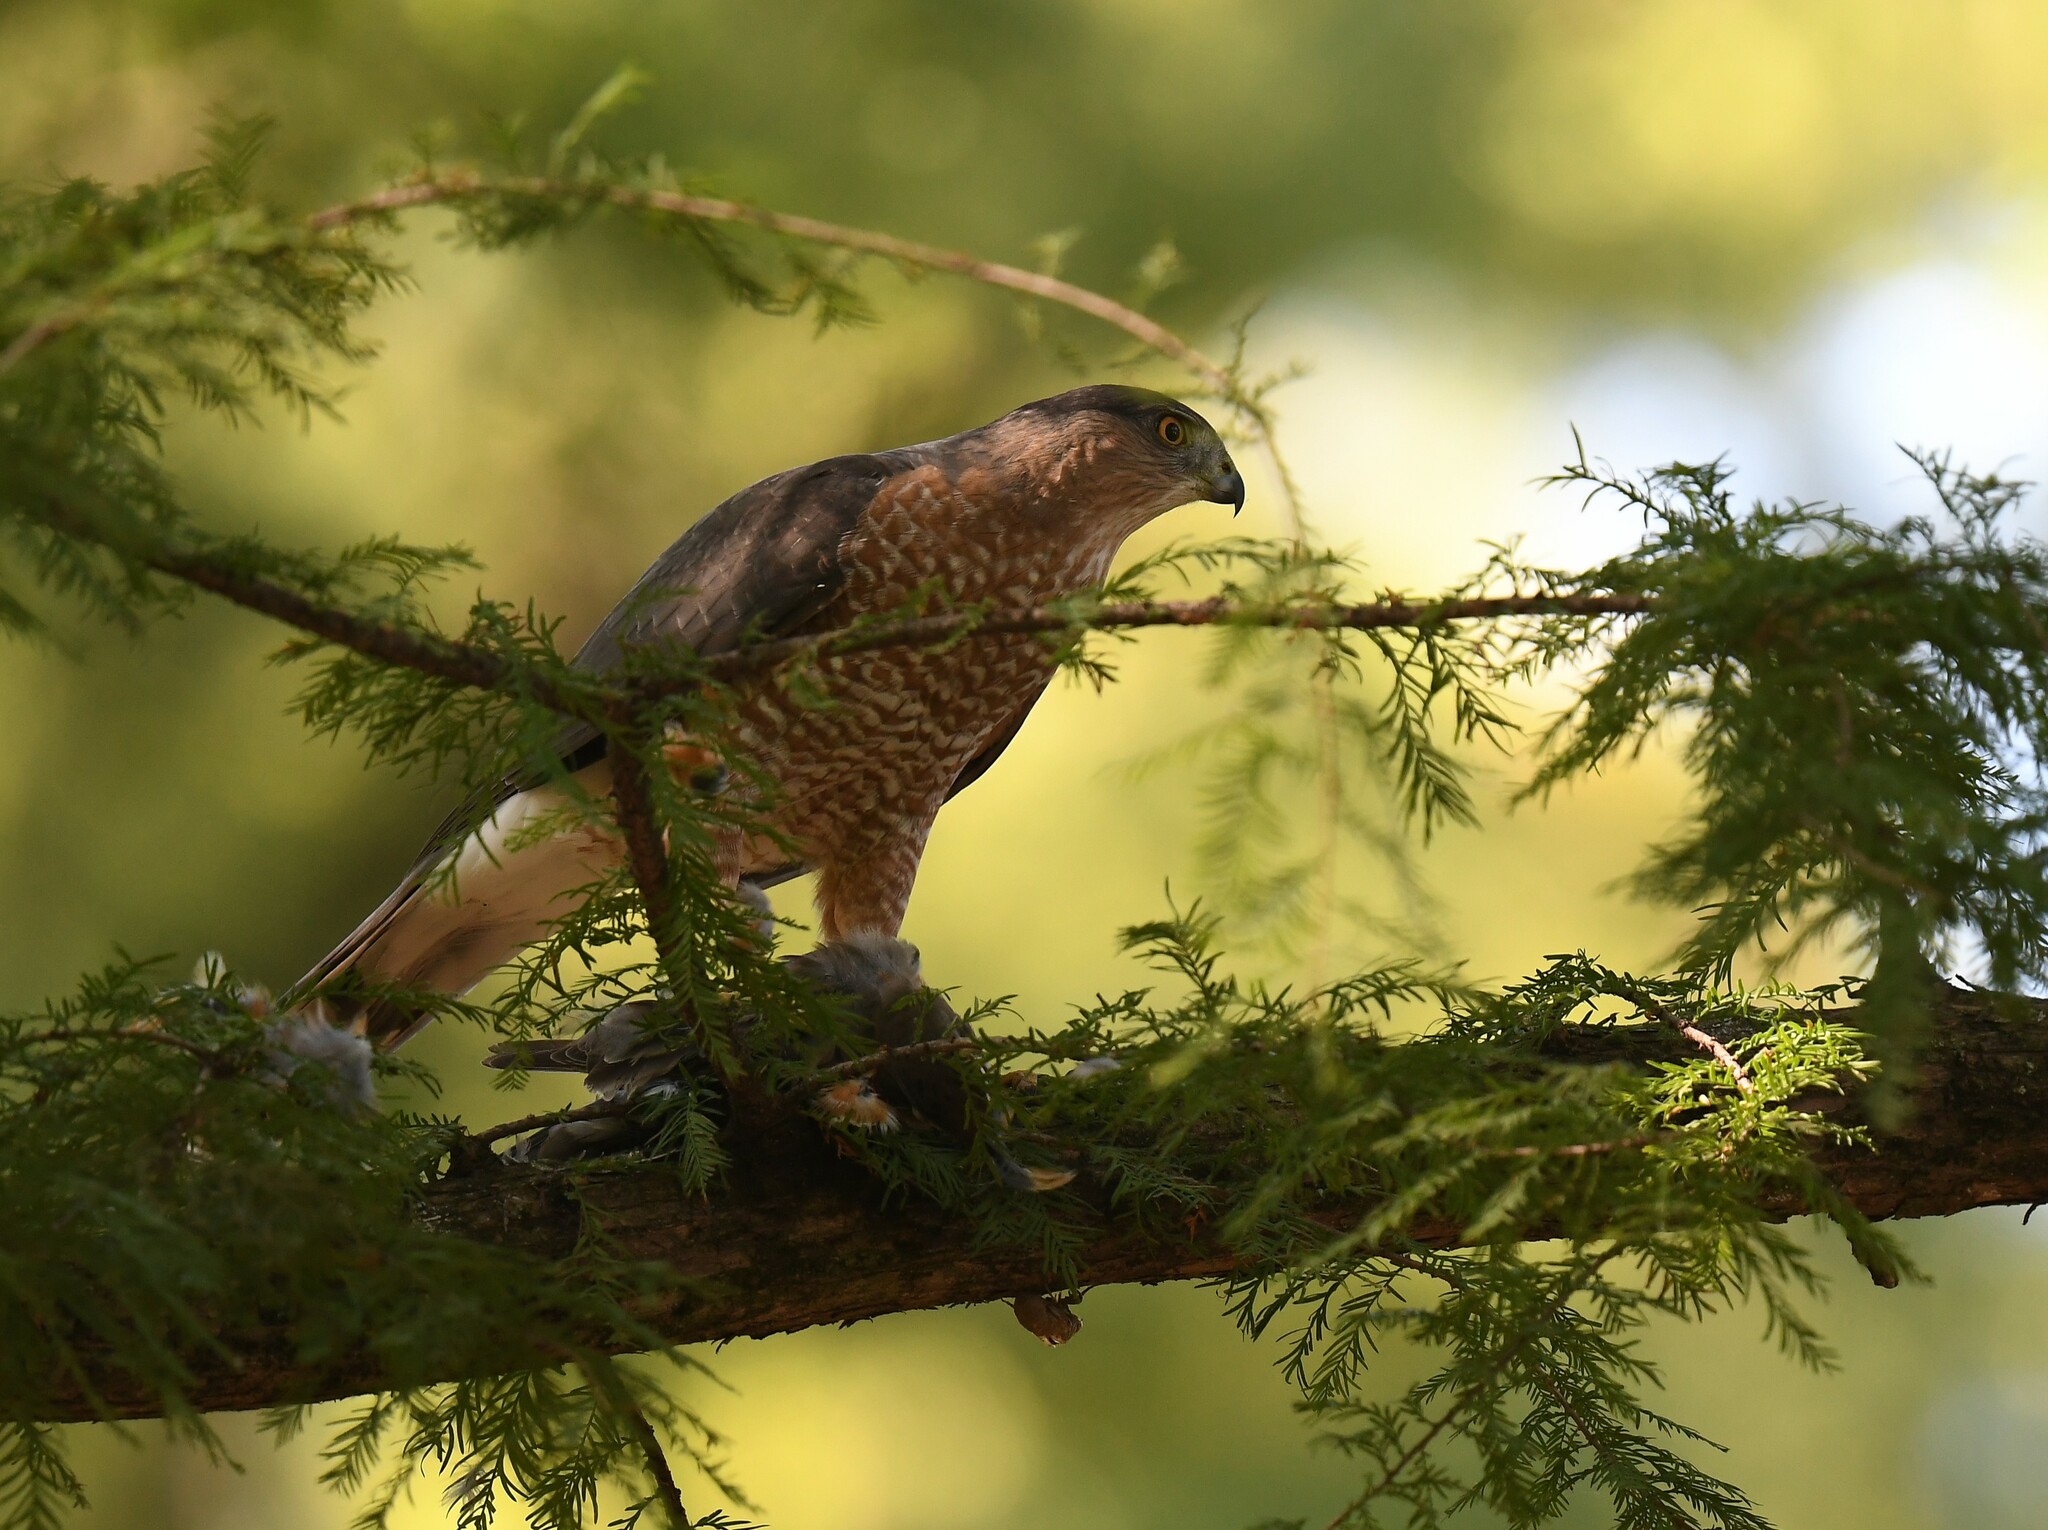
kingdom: Animalia
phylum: Chordata
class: Aves
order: Accipitriformes
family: Accipitridae
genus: Accipiter
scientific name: Accipiter cooperii
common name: Cooper's hawk
